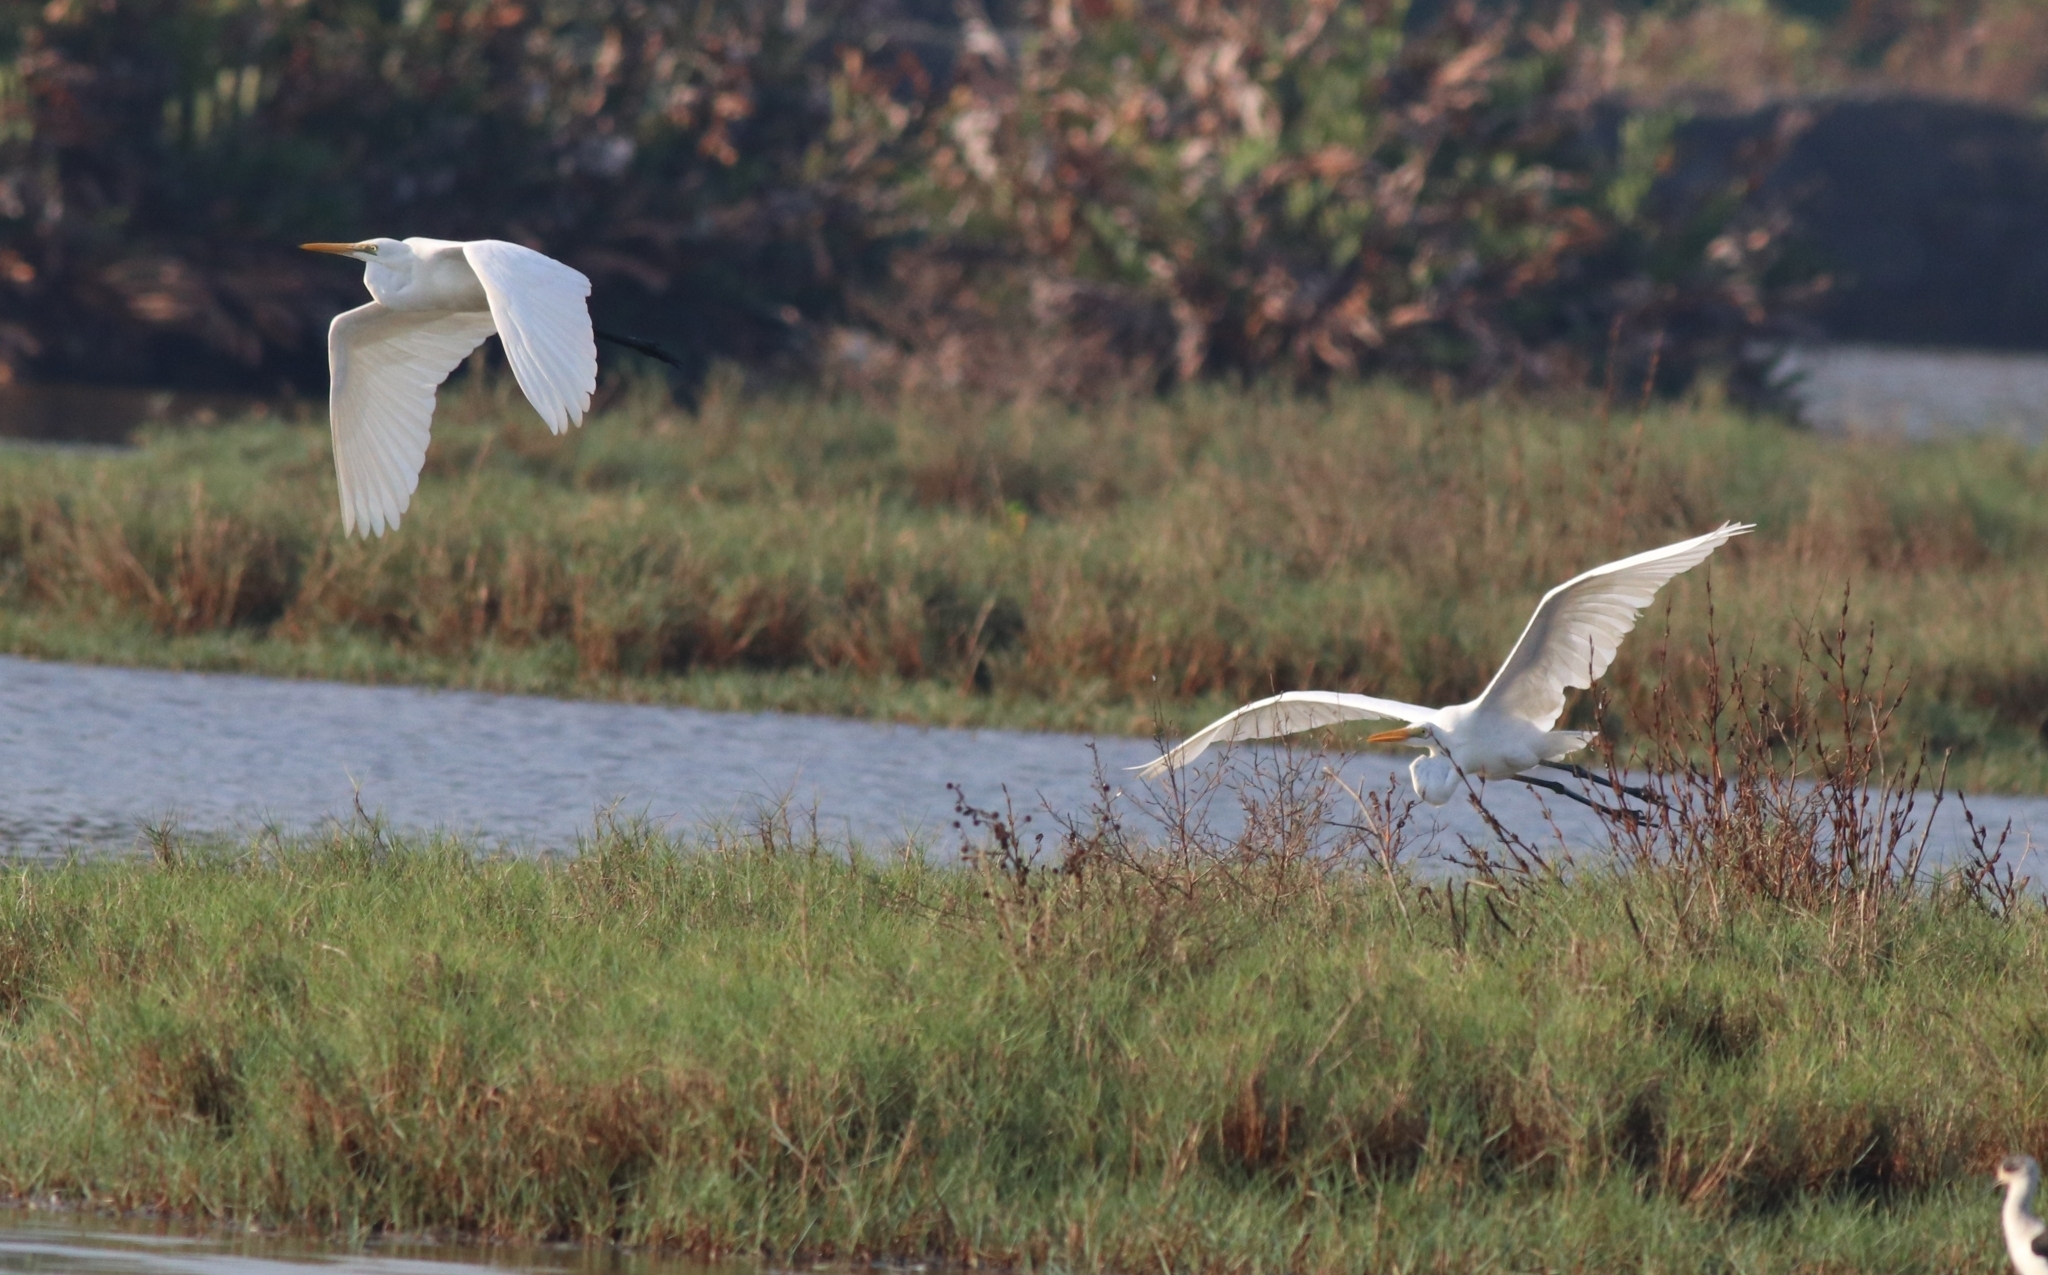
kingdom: Animalia
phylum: Chordata
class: Aves
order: Pelecaniformes
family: Ardeidae
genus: Ardea
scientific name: Ardea alba
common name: Great egret
